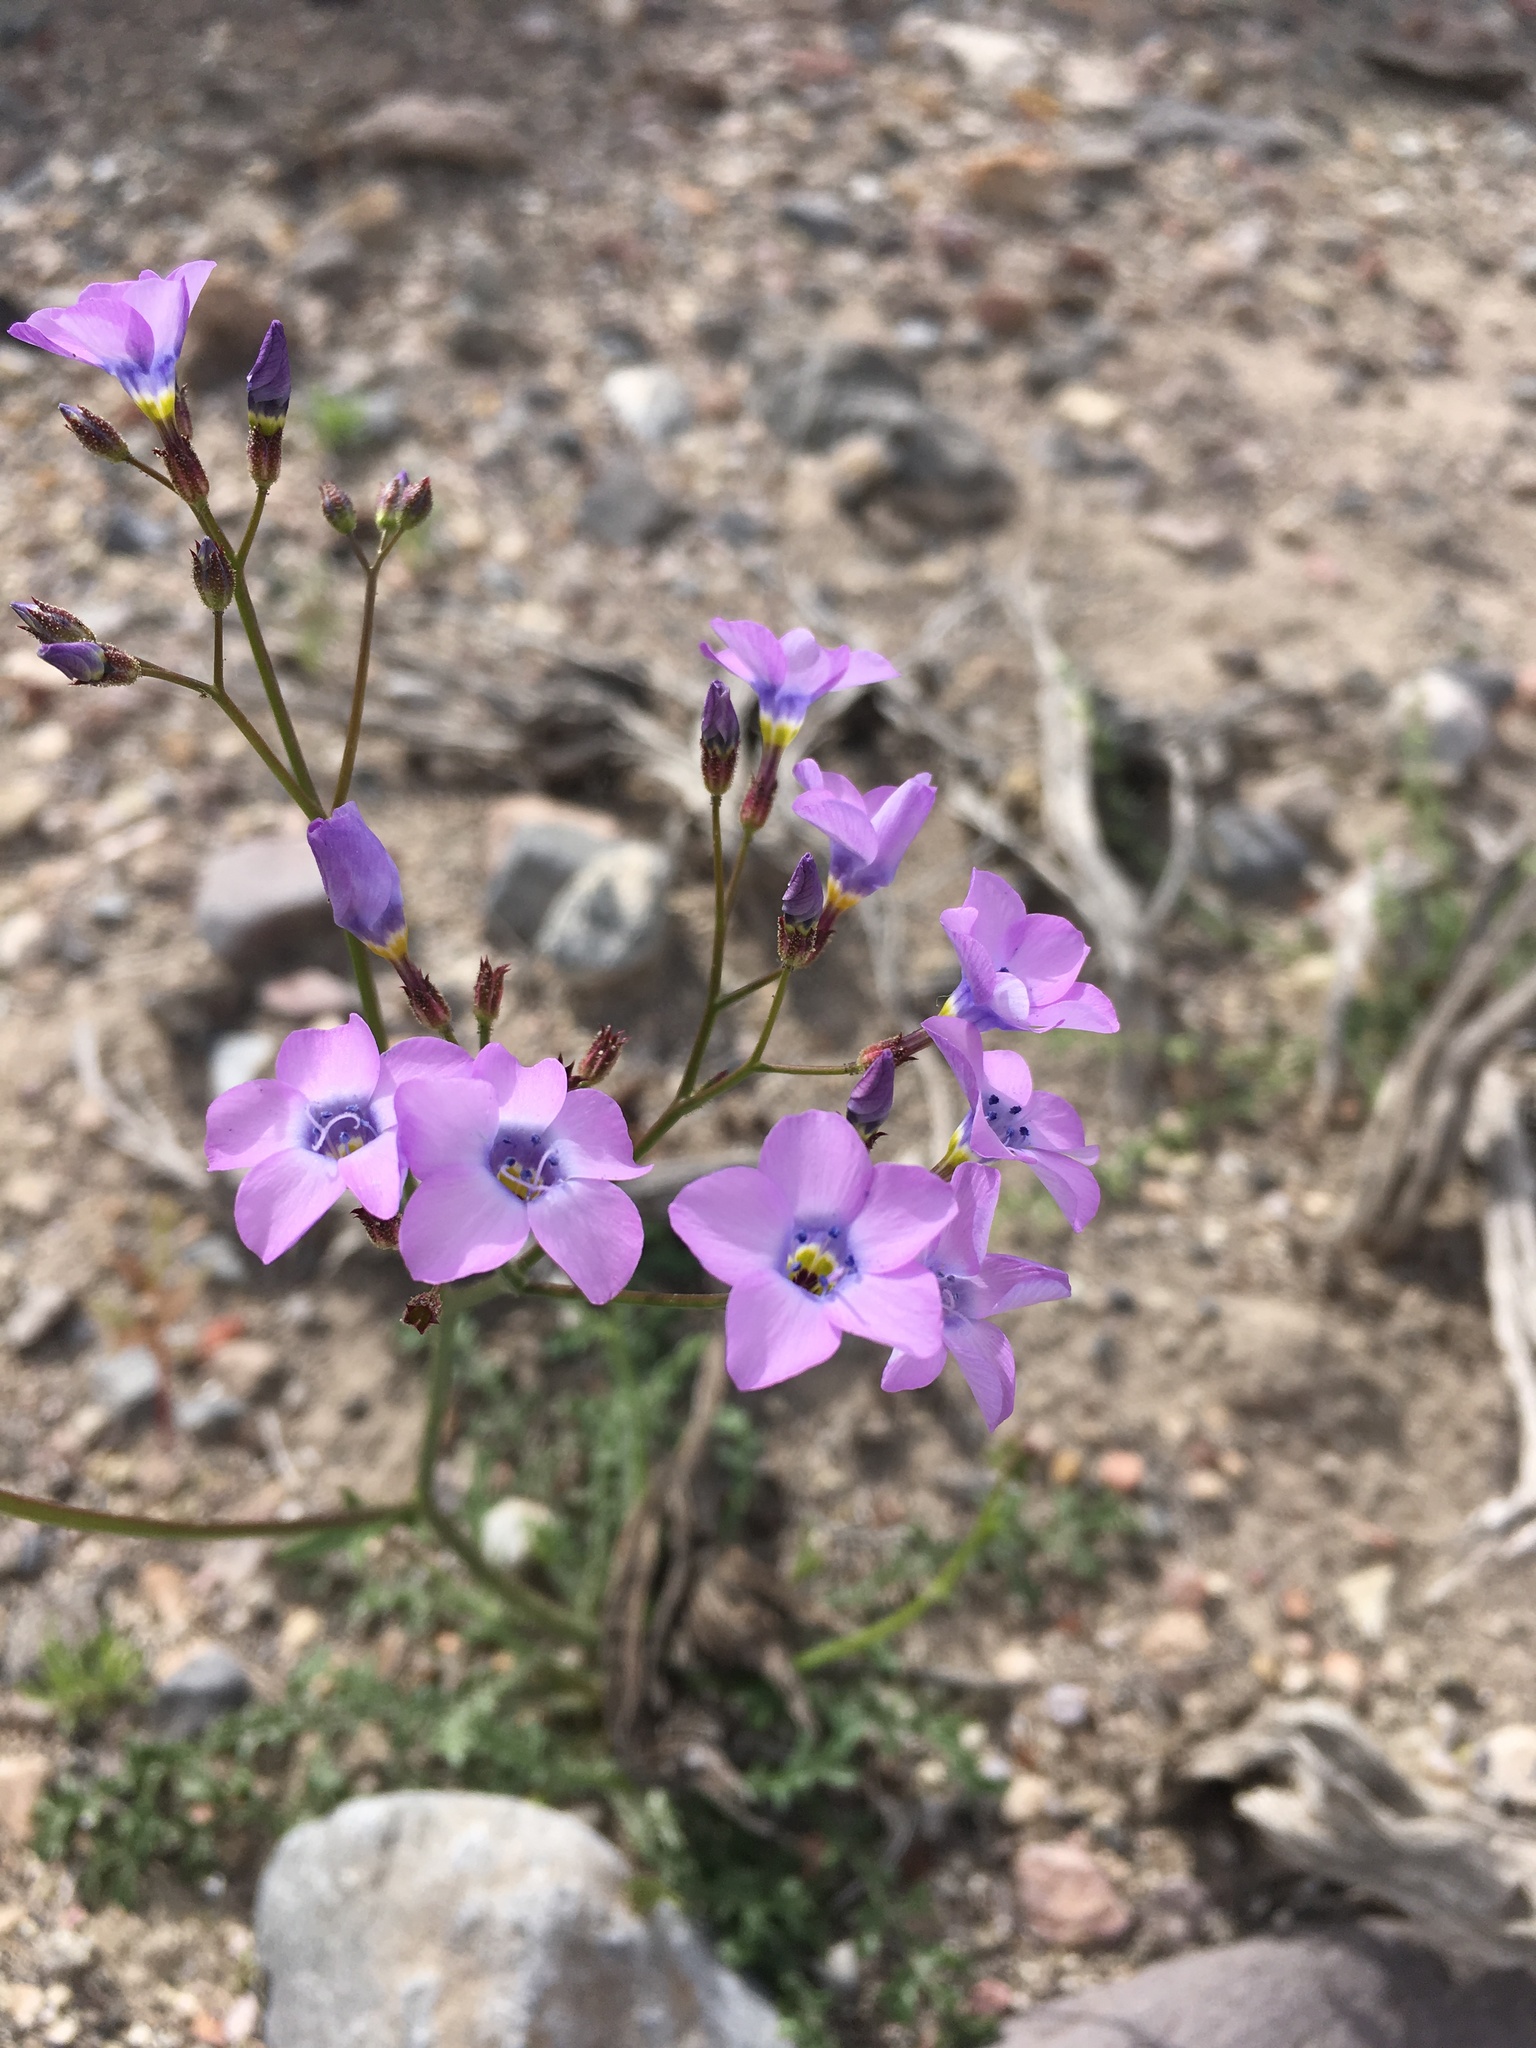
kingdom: Plantae
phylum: Tracheophyta
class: Magnoliopsida
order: Ericales
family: Polemoniaceae
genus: Gilia
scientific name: Gilia cana
